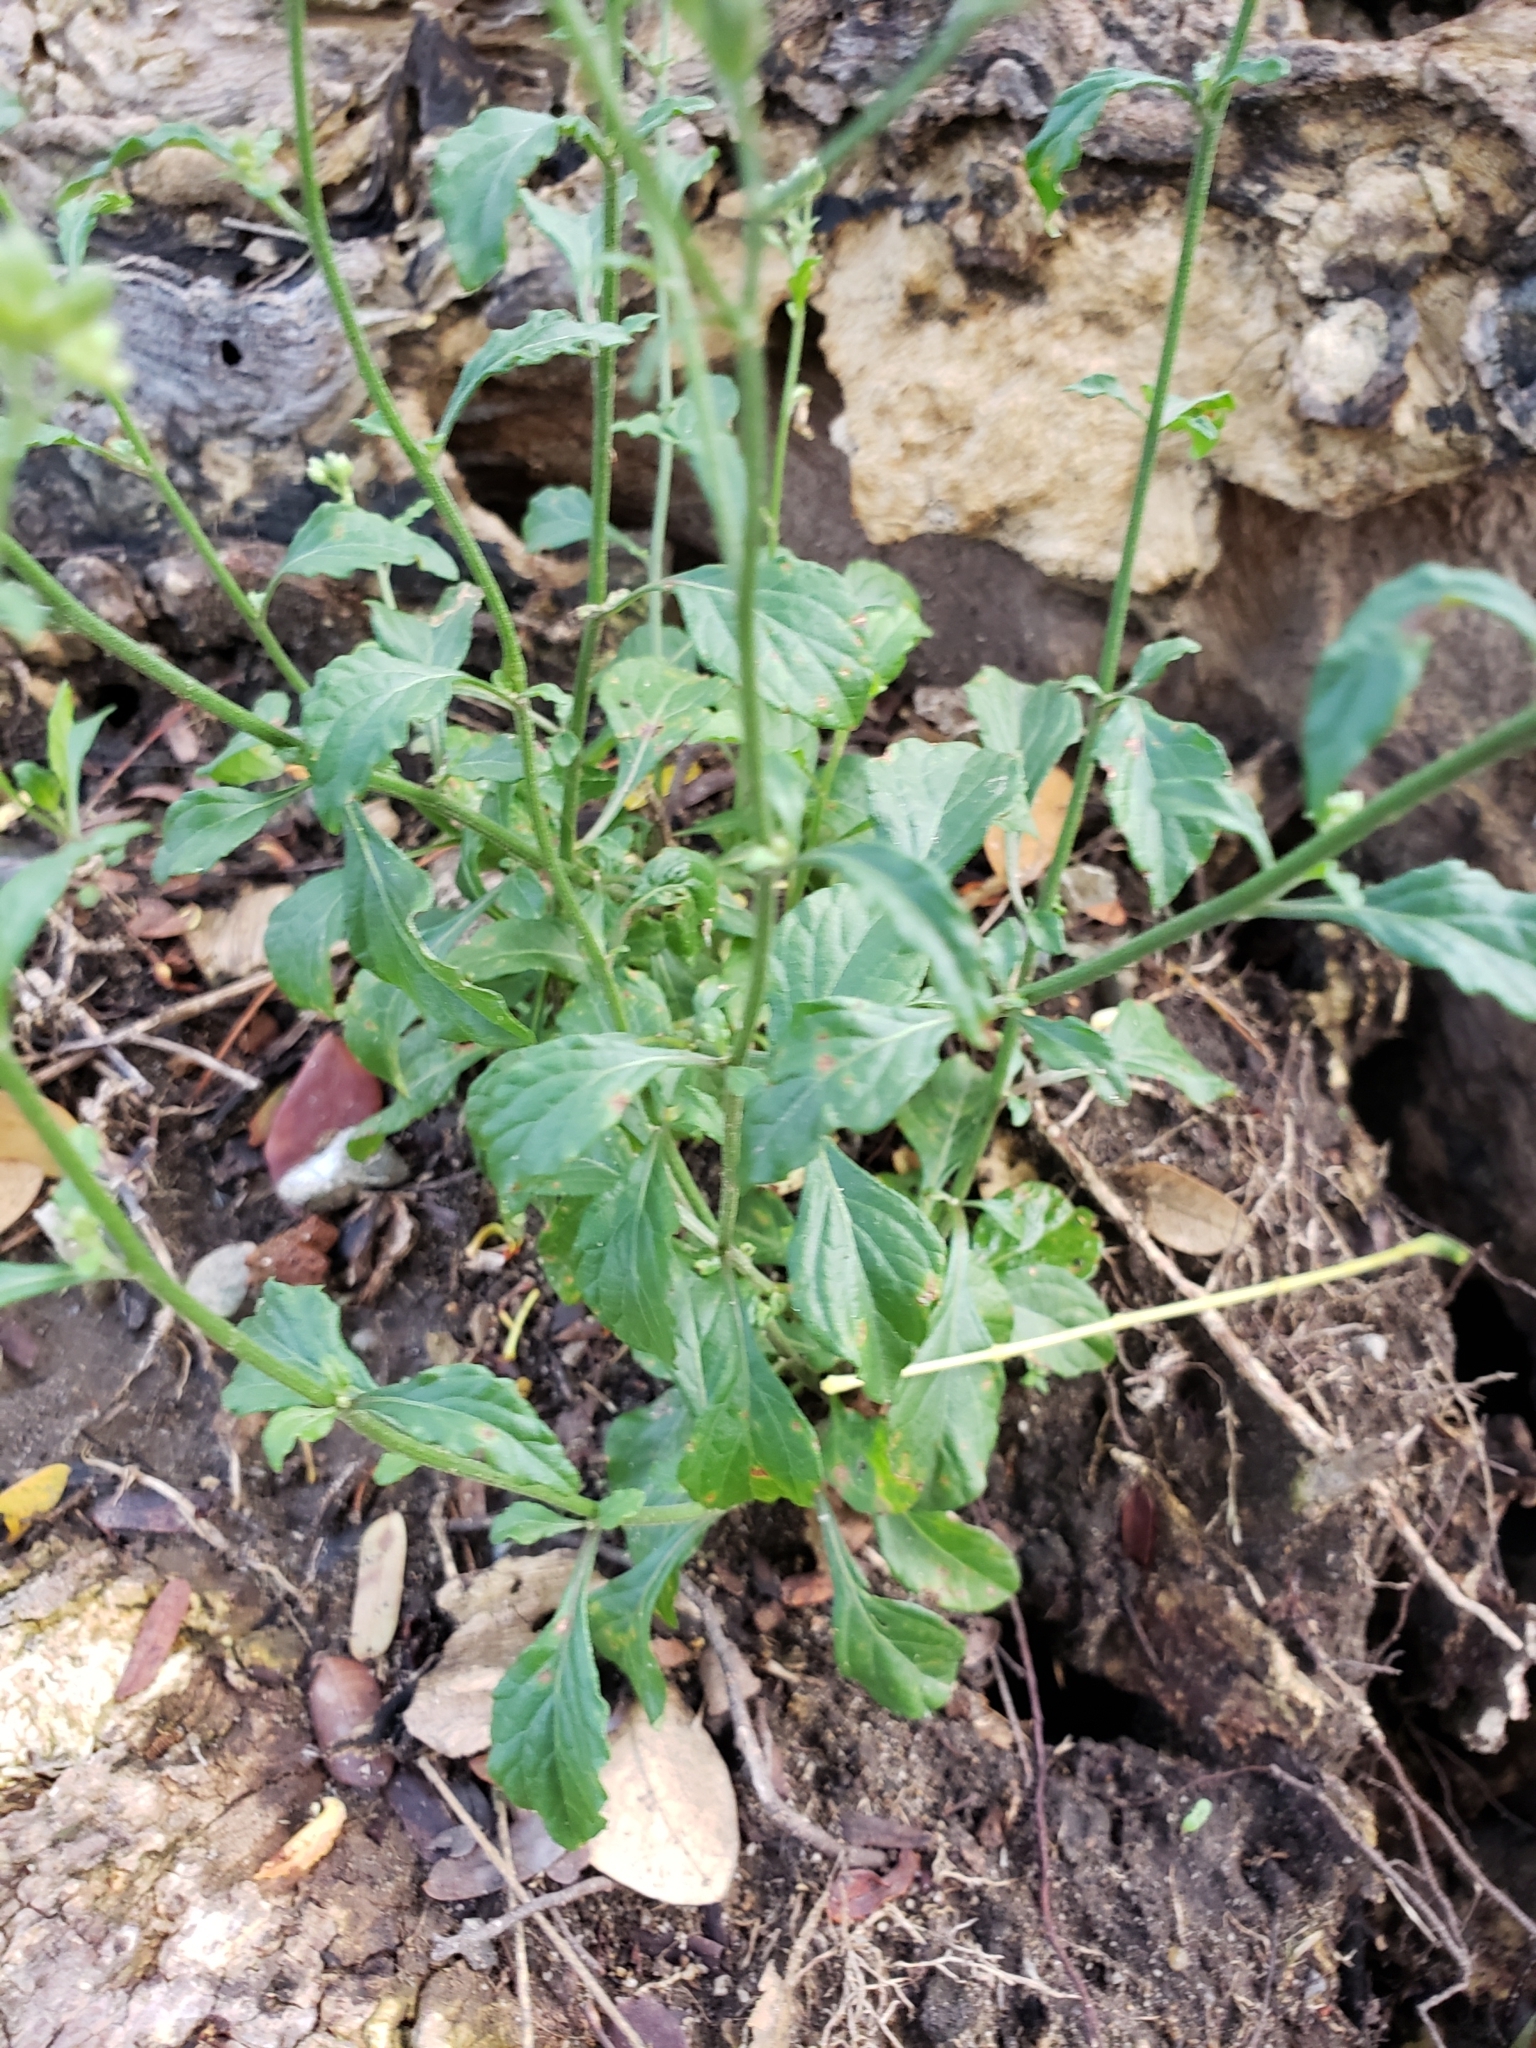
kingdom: Plantae
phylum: Tracheophyta
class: Magnoliopsida
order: Asterales
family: Asteraceae
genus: Cyanthillium
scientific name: Cyanthillium cinereum
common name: Little ironweed
